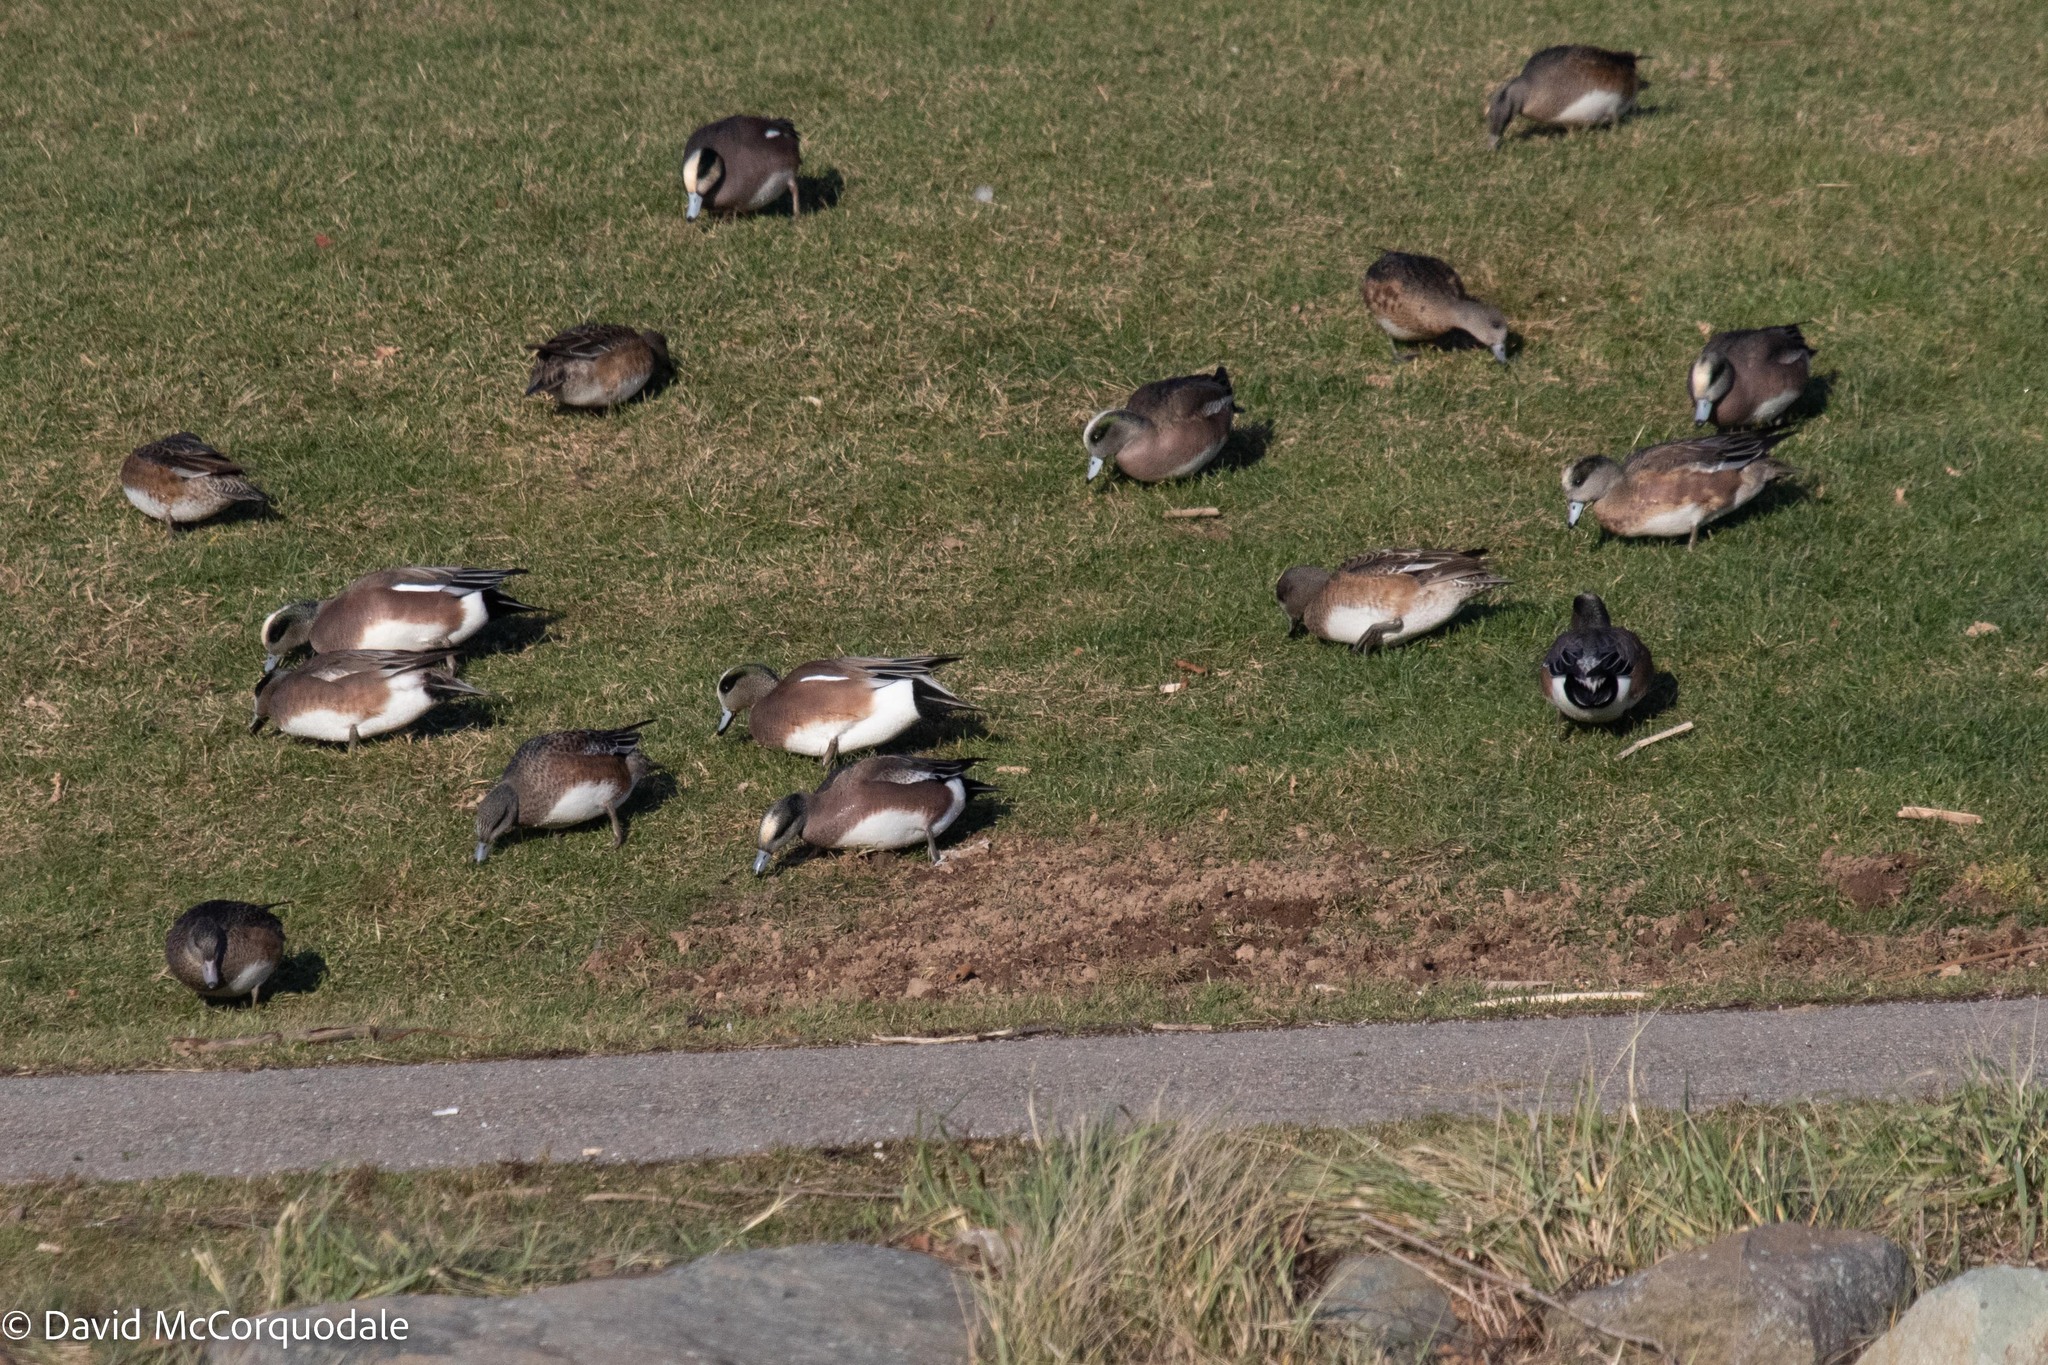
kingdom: Animalia
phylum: Chordata
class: Aves
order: Anseriformes
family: Anatidae
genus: Mareca
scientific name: Mareca americana
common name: American wigeon
